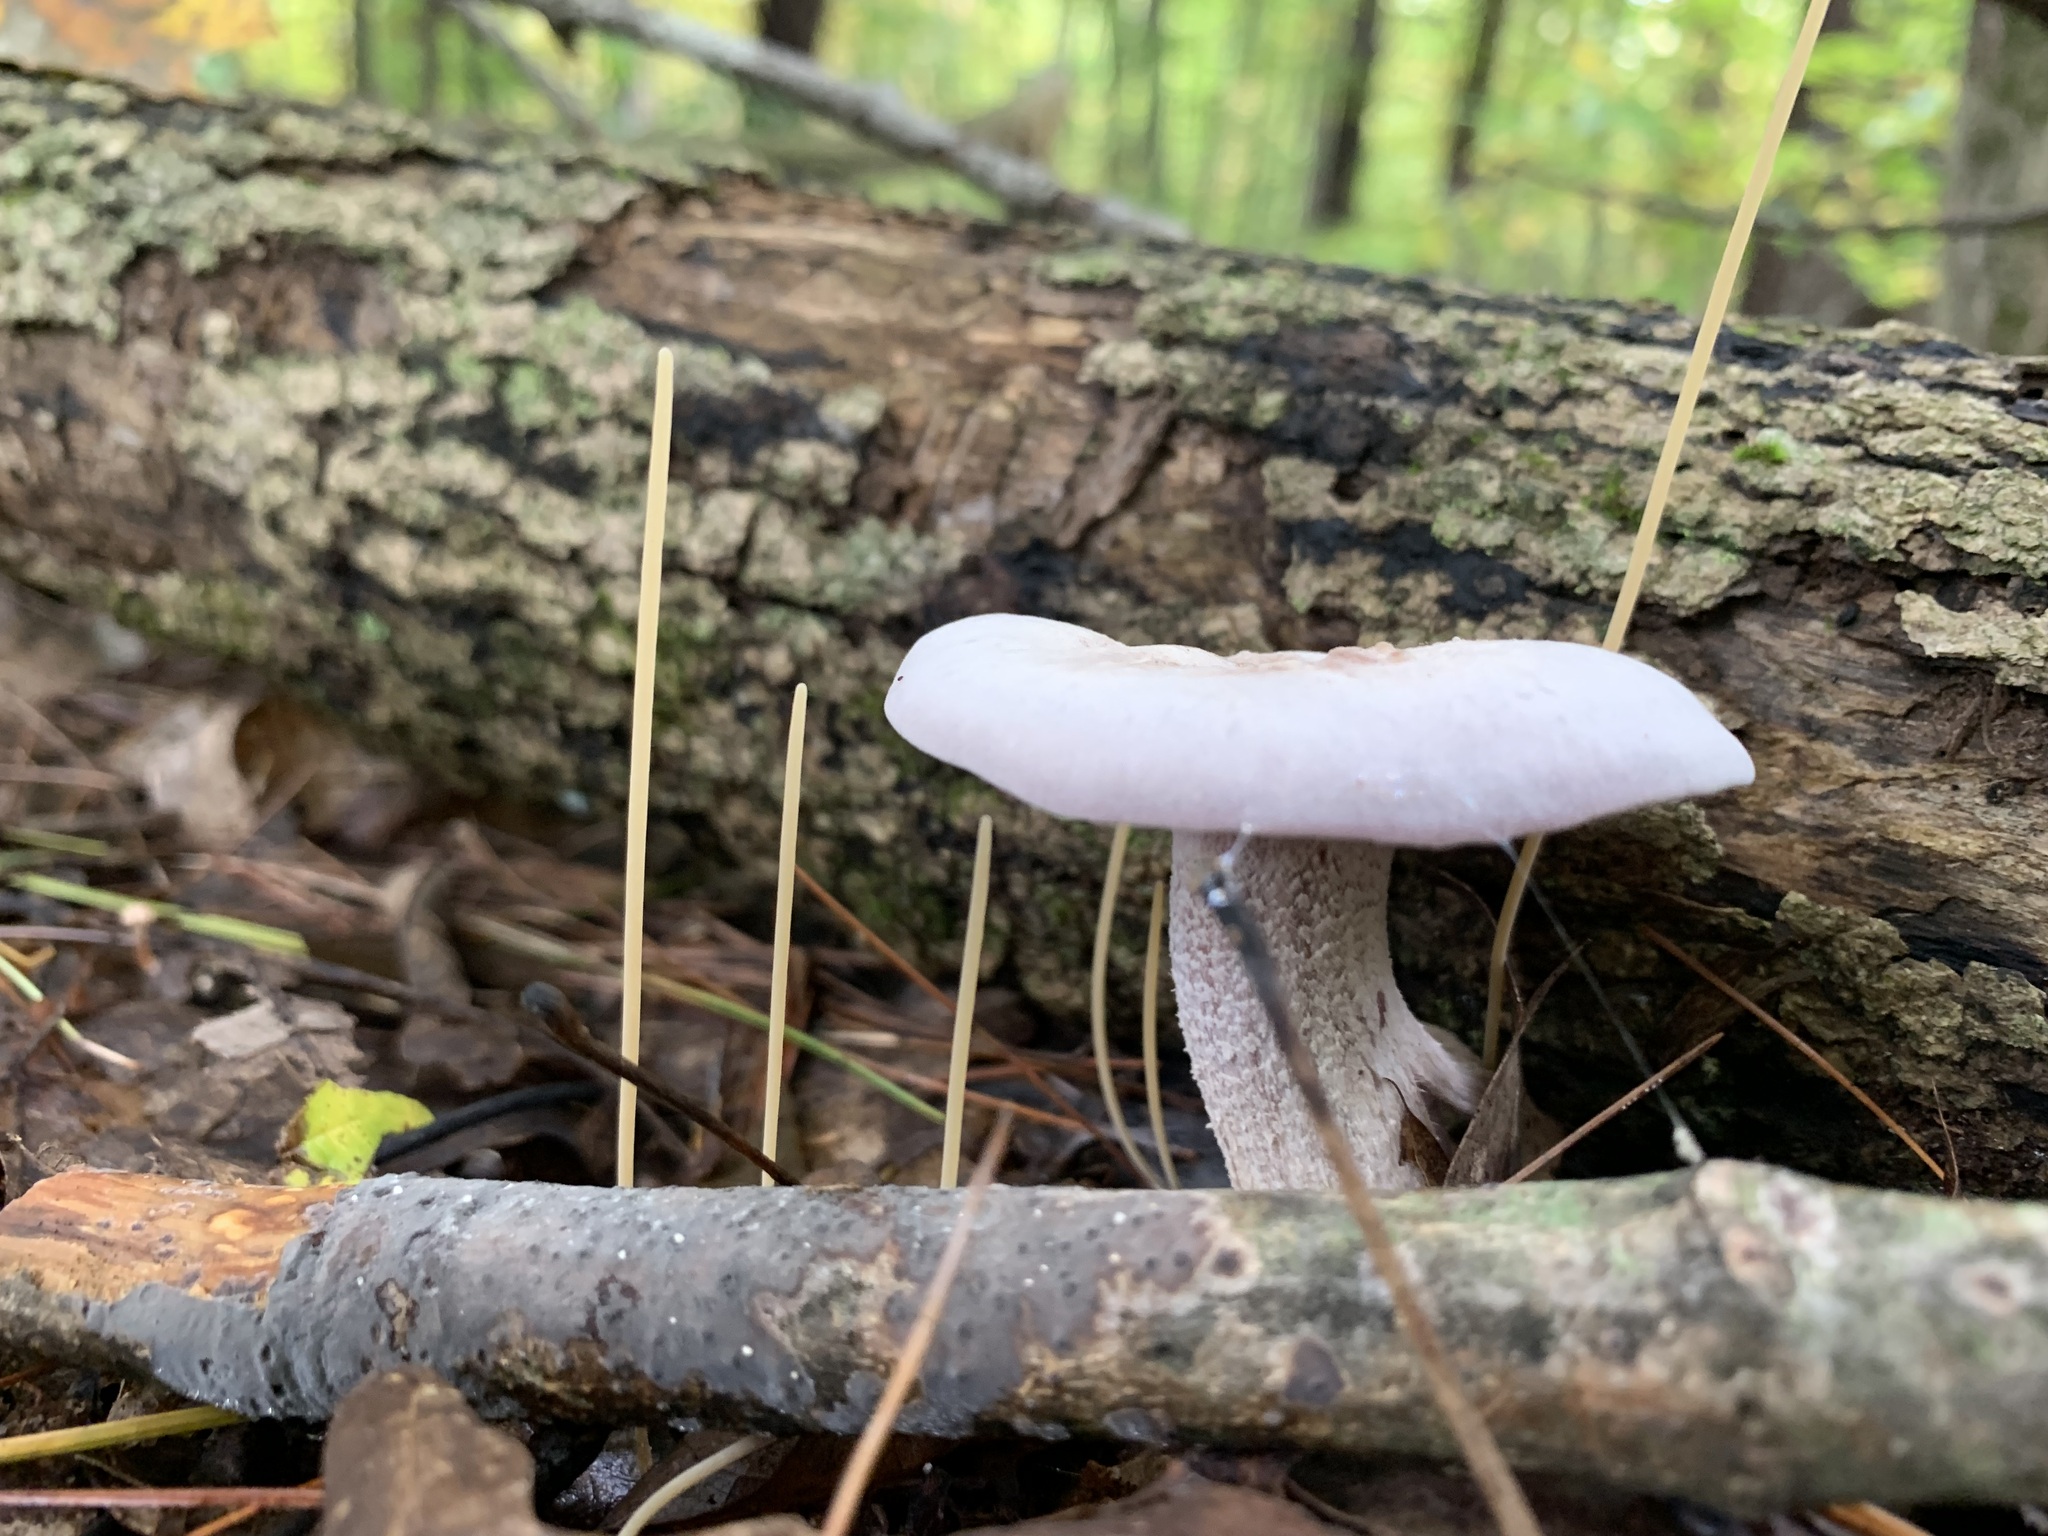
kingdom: Fungi
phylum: Basidiomycota
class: Agaricomycetes
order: Agaricales
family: Typhulaceae
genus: Typhula
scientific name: Typhula juncea
